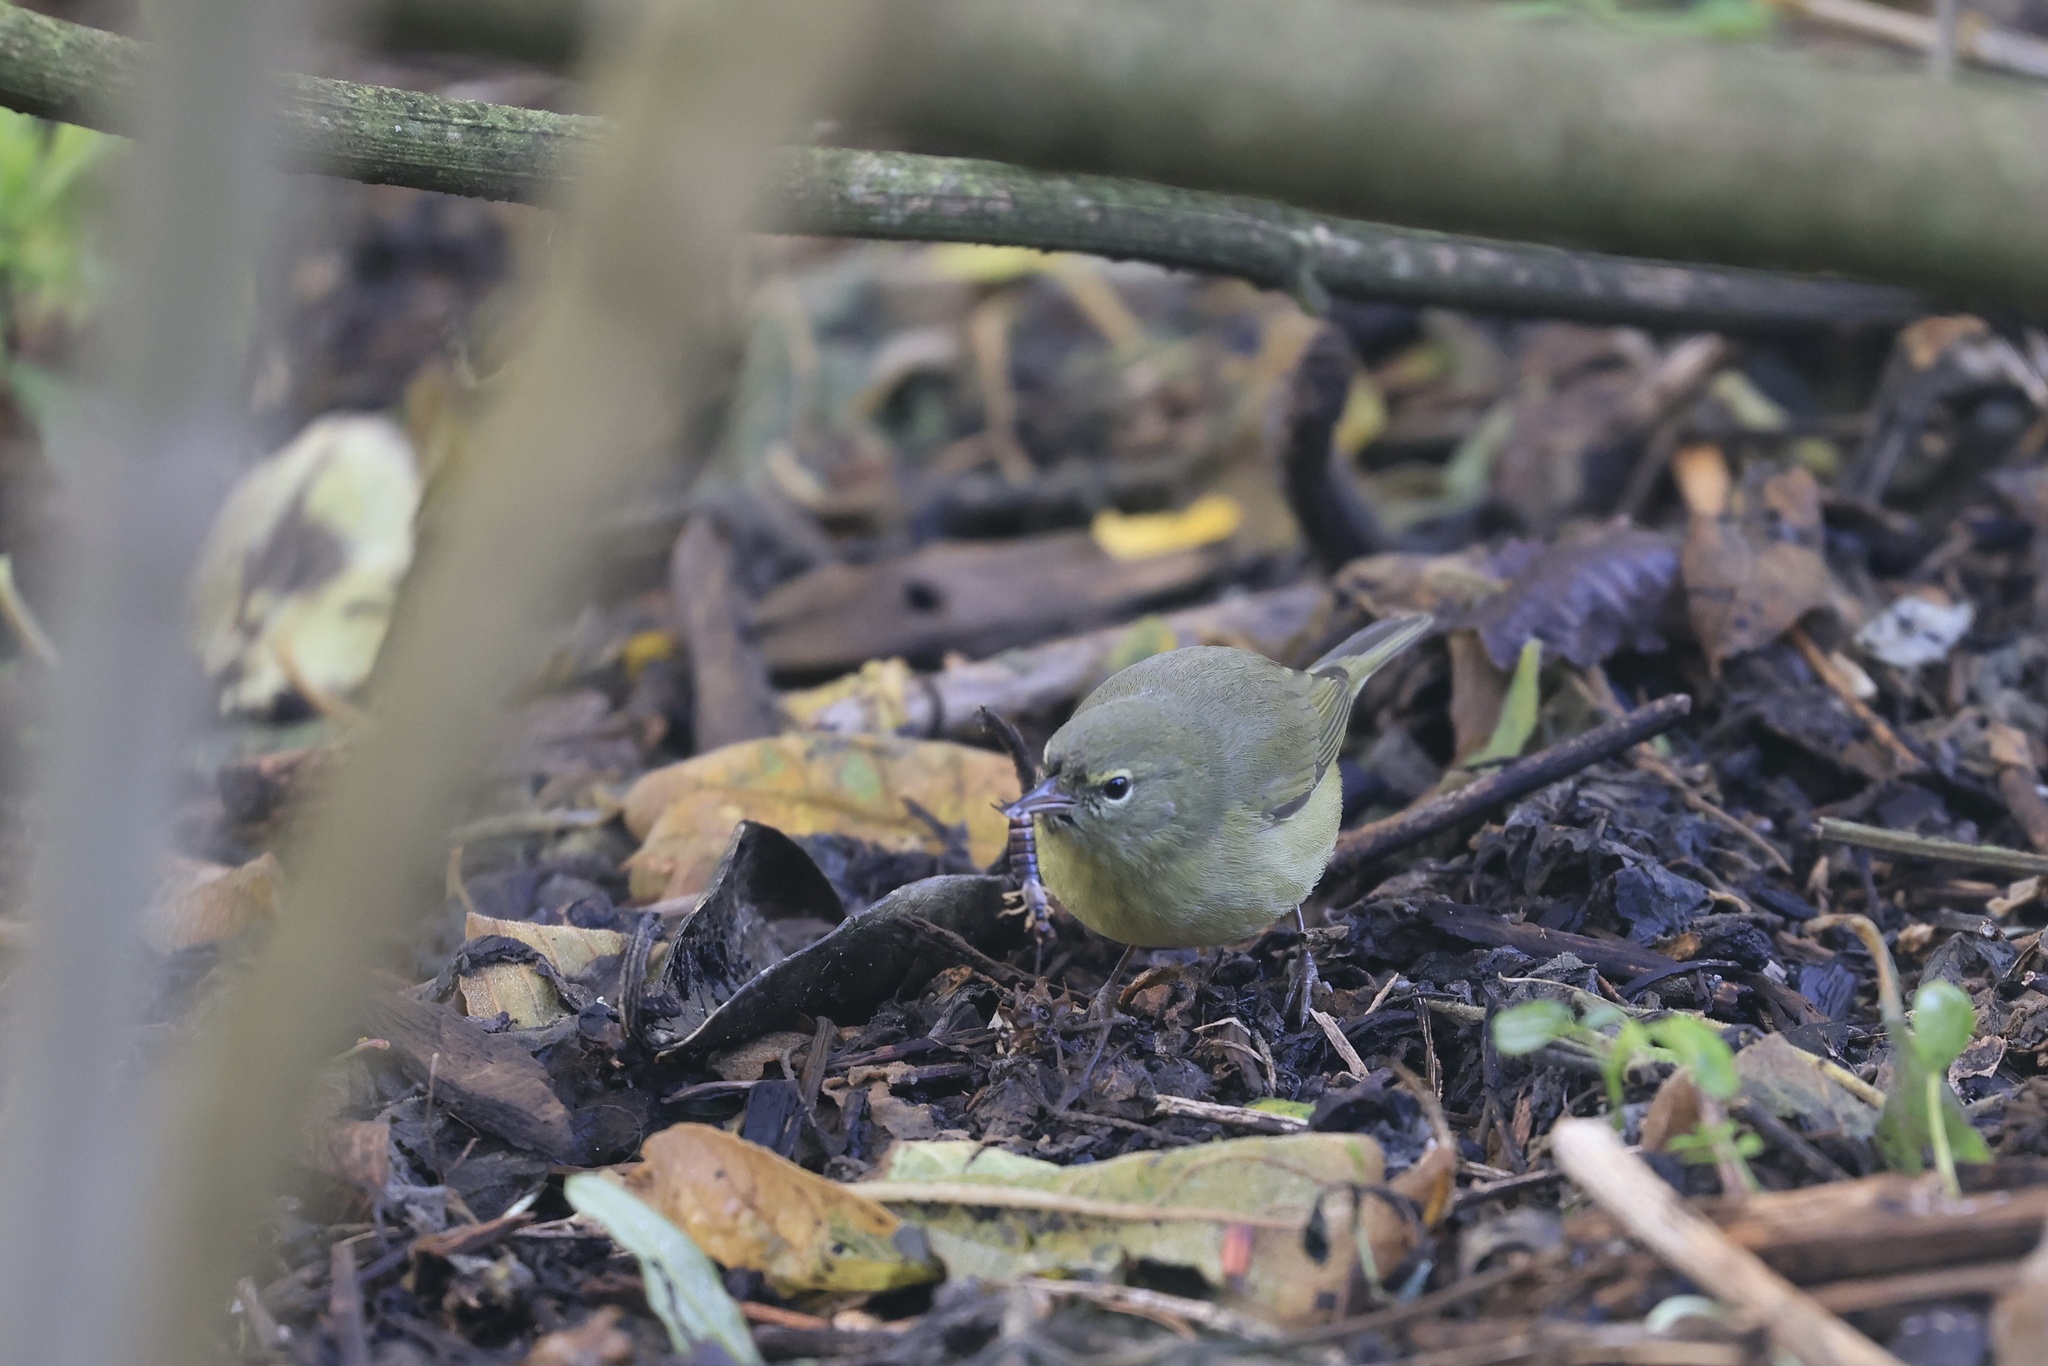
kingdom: Animalia
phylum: Chordata
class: Aves
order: Passeriformes
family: Parulidae
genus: Leiothlypis
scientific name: Leiothlypis celata
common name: Orange-crowned warbler
